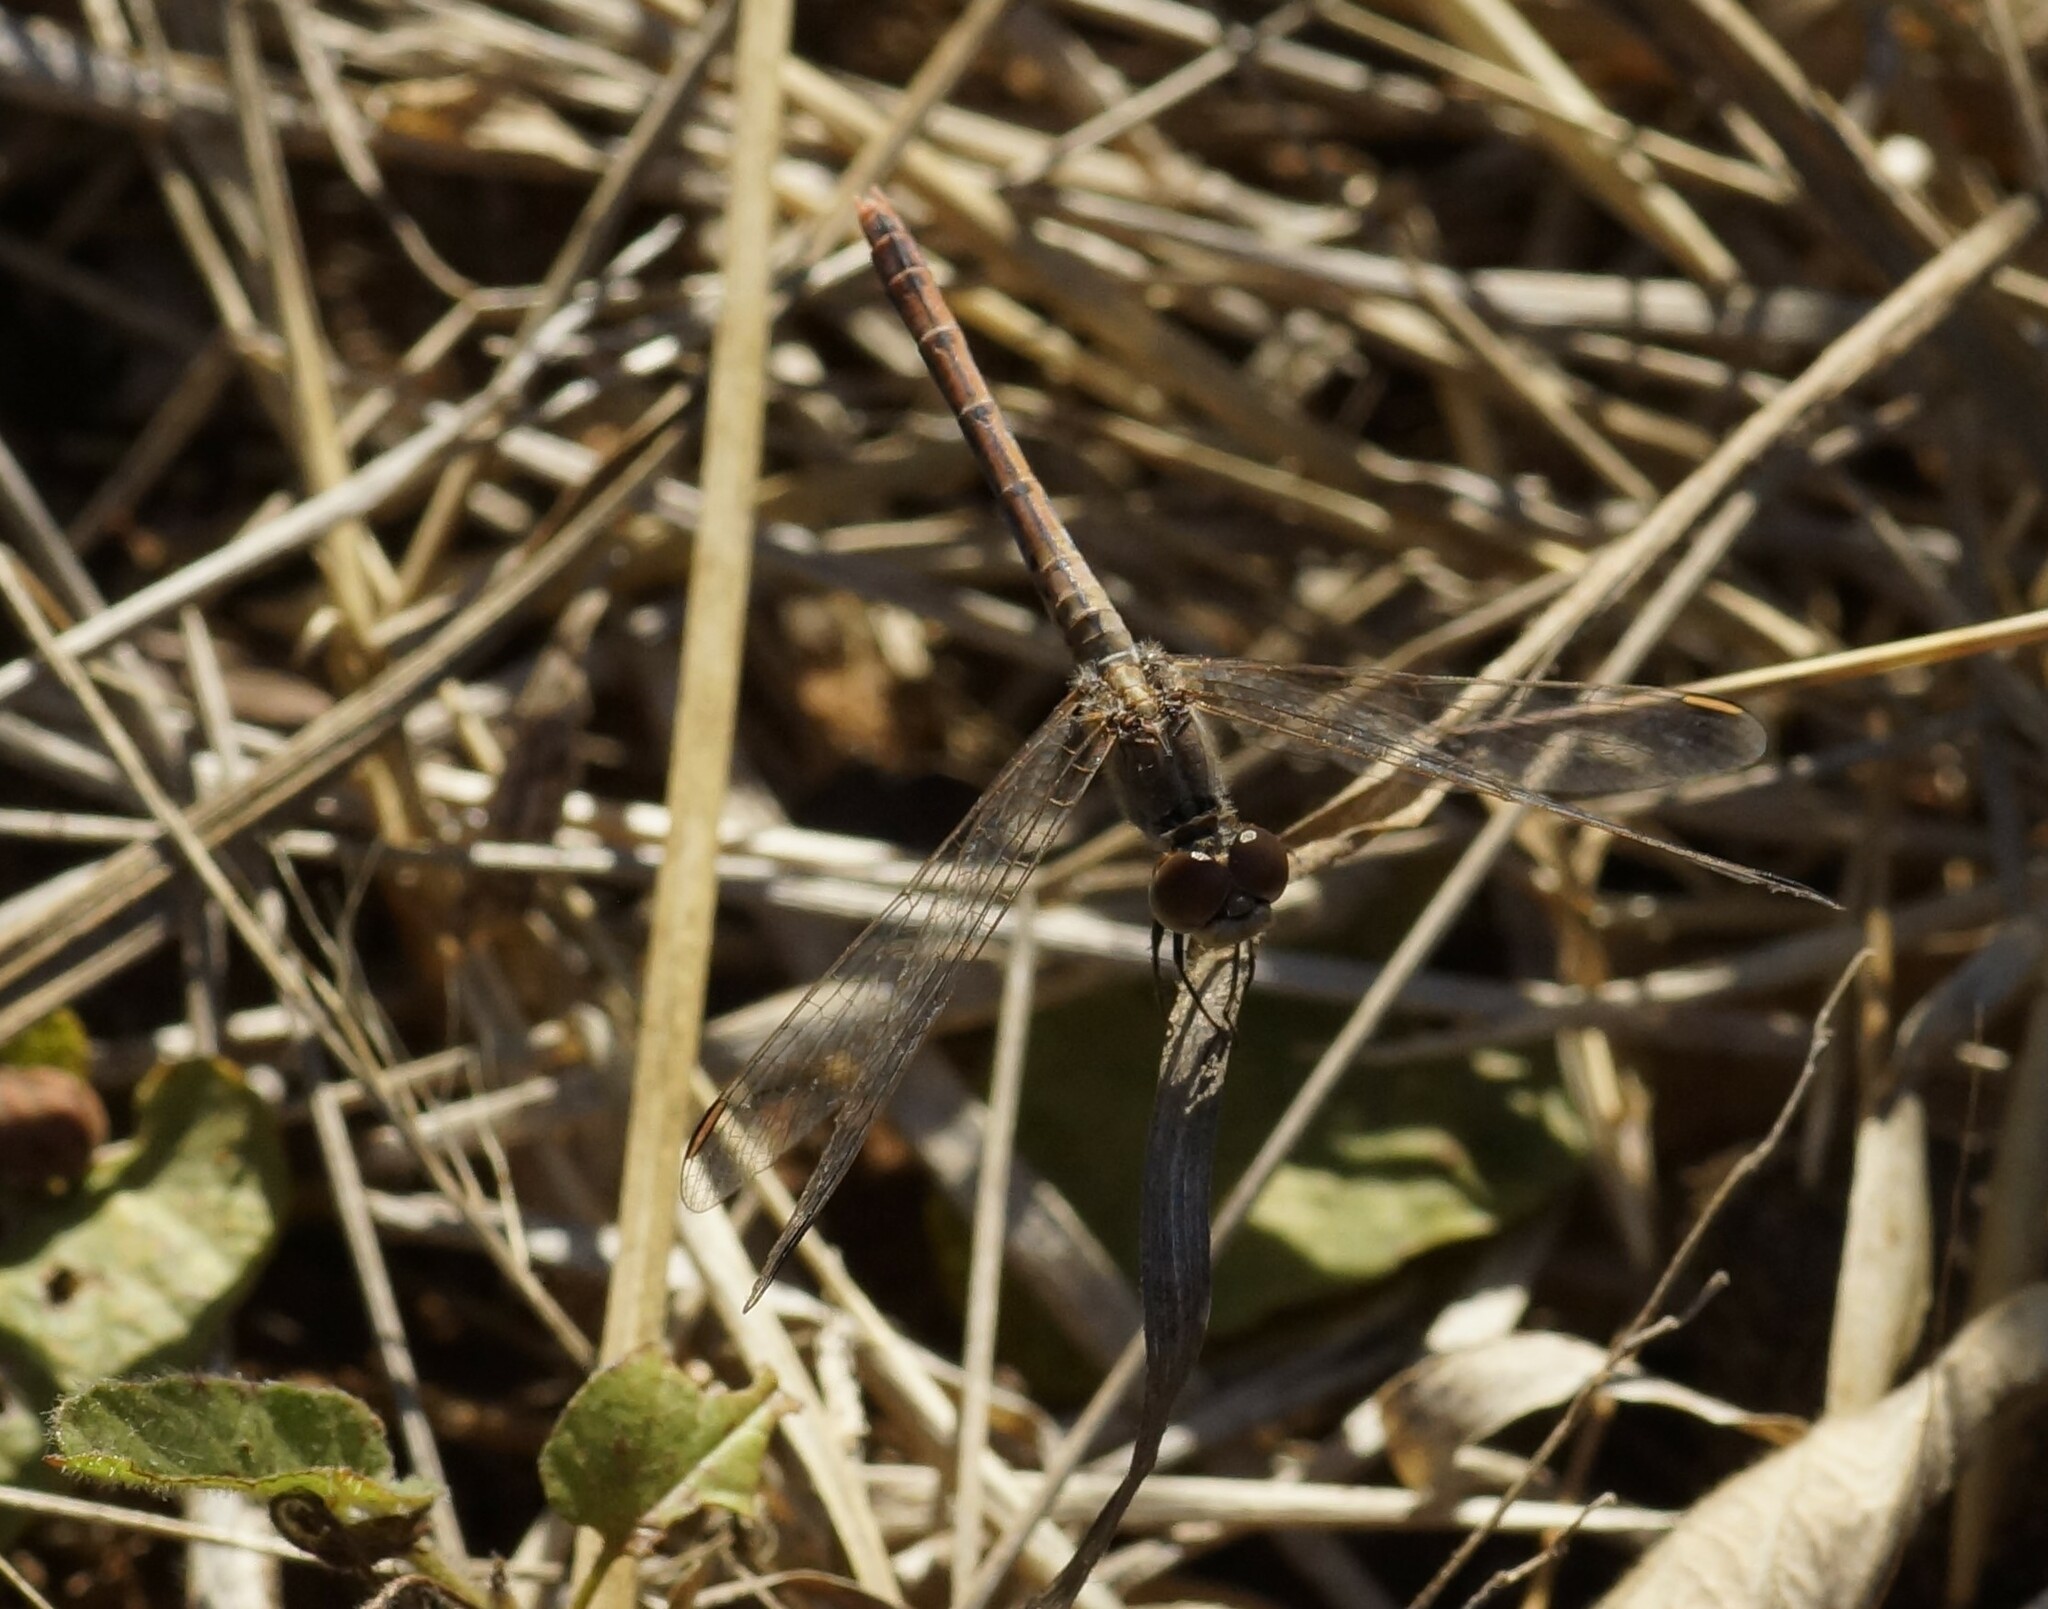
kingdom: Animalia
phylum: Arthropoda
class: Insecta
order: Odonata
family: Libellulidae
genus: Diplacodes
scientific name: Diplacodes bipunctata
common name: Red percher dragonfly
